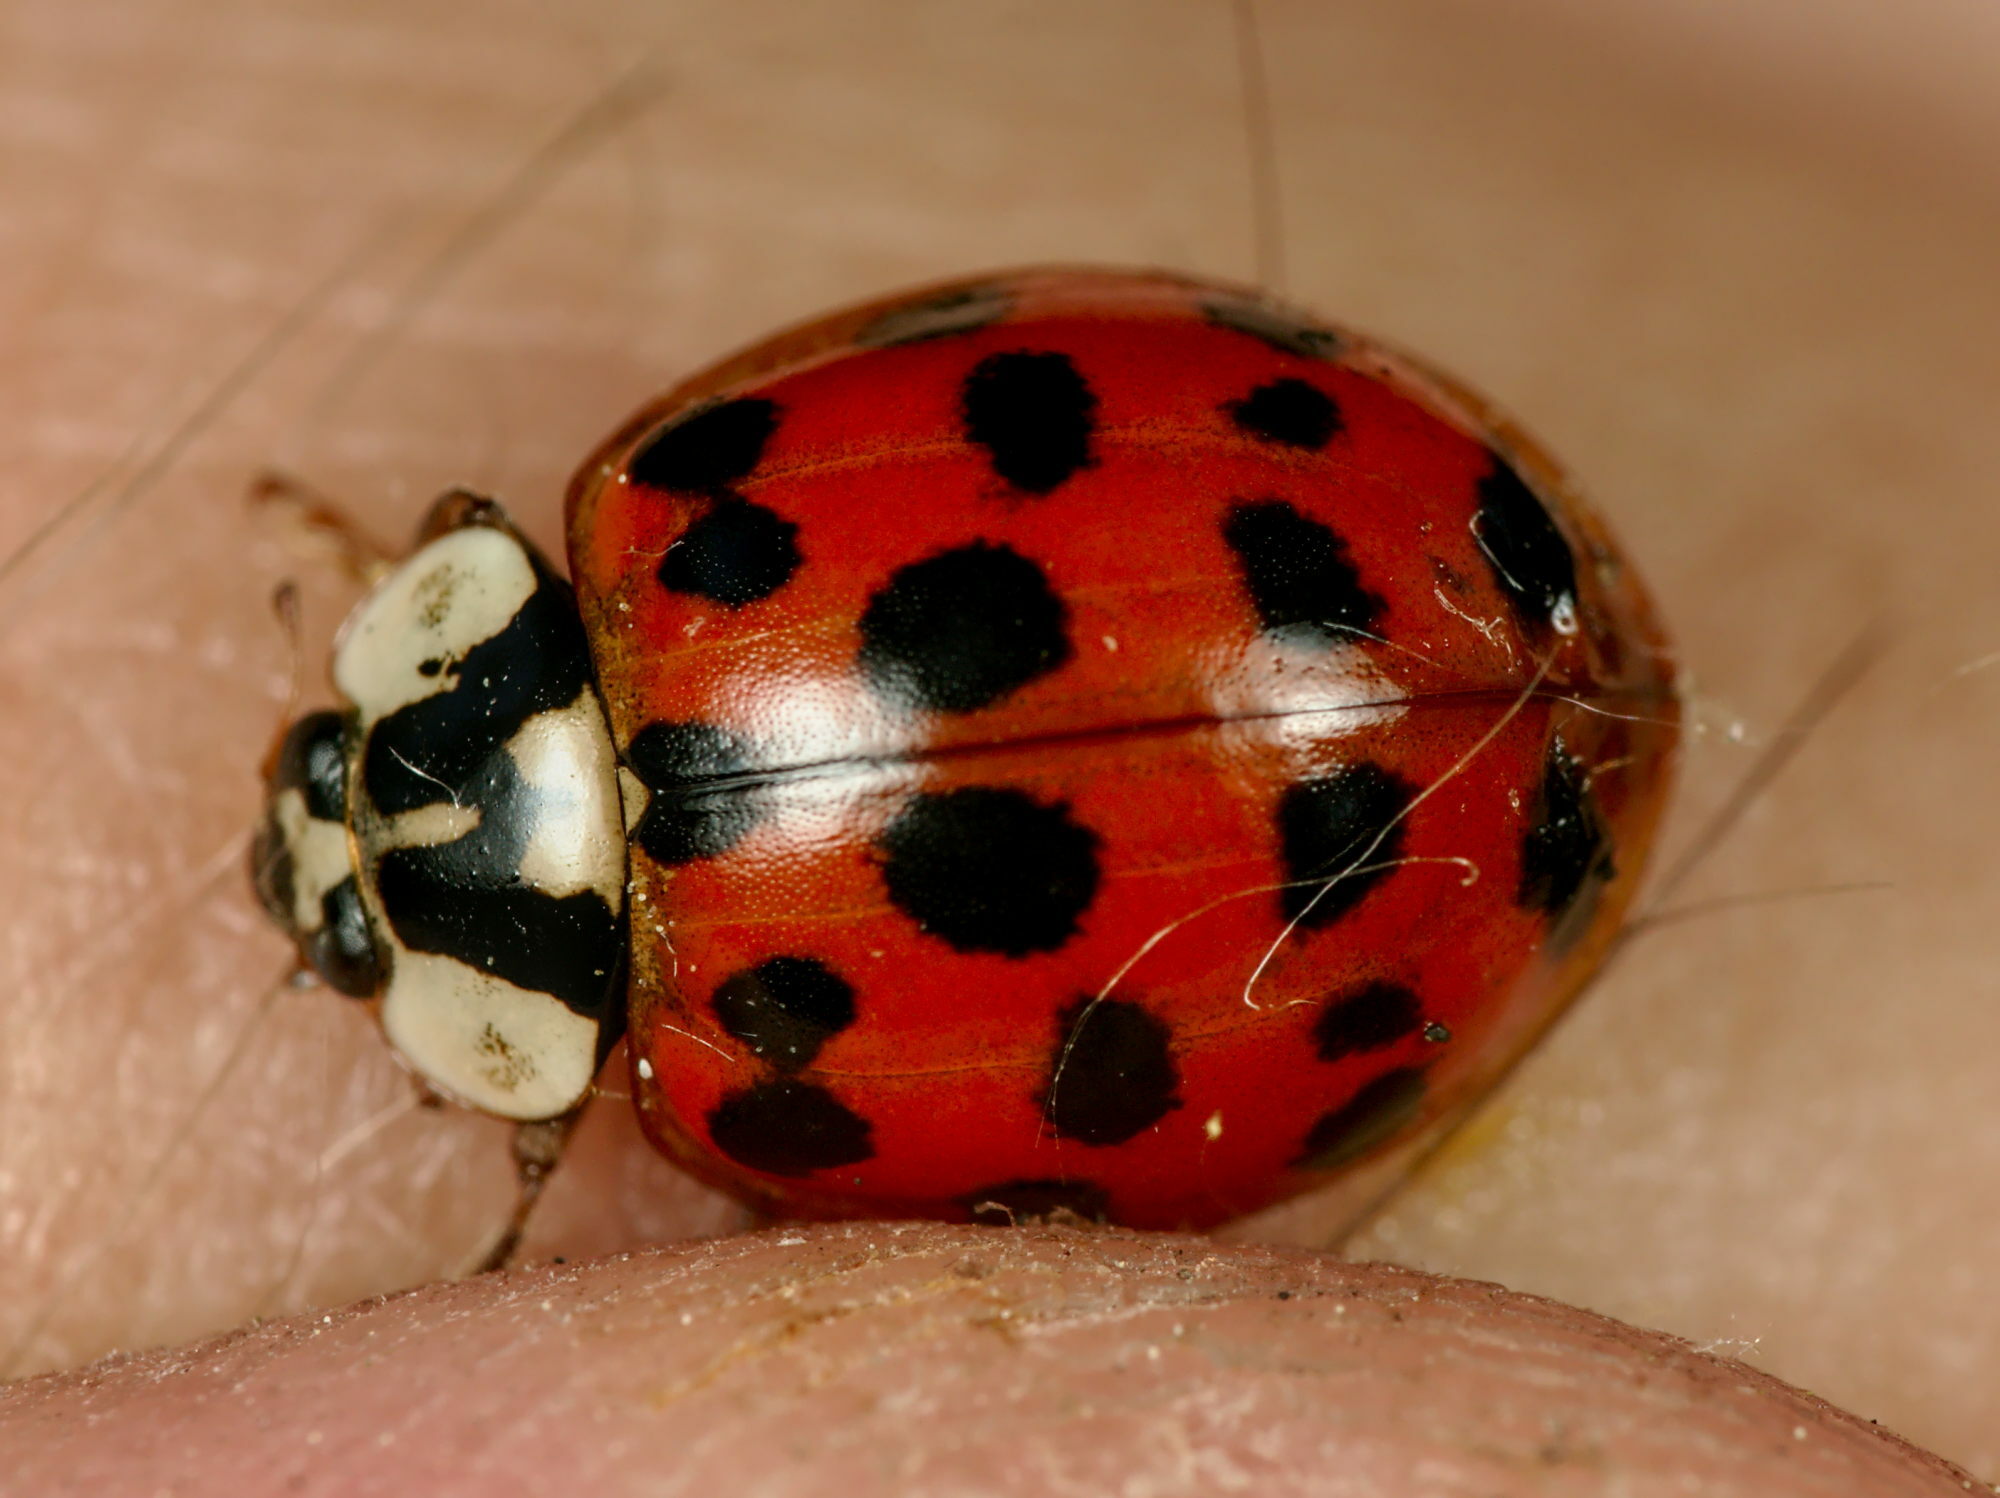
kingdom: Animalia
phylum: Arthropoda
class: Insecta
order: Coleoptera
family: Coccinellidae
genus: Harmonia
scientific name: Harmonia axyridis
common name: Harlequin ladybird
